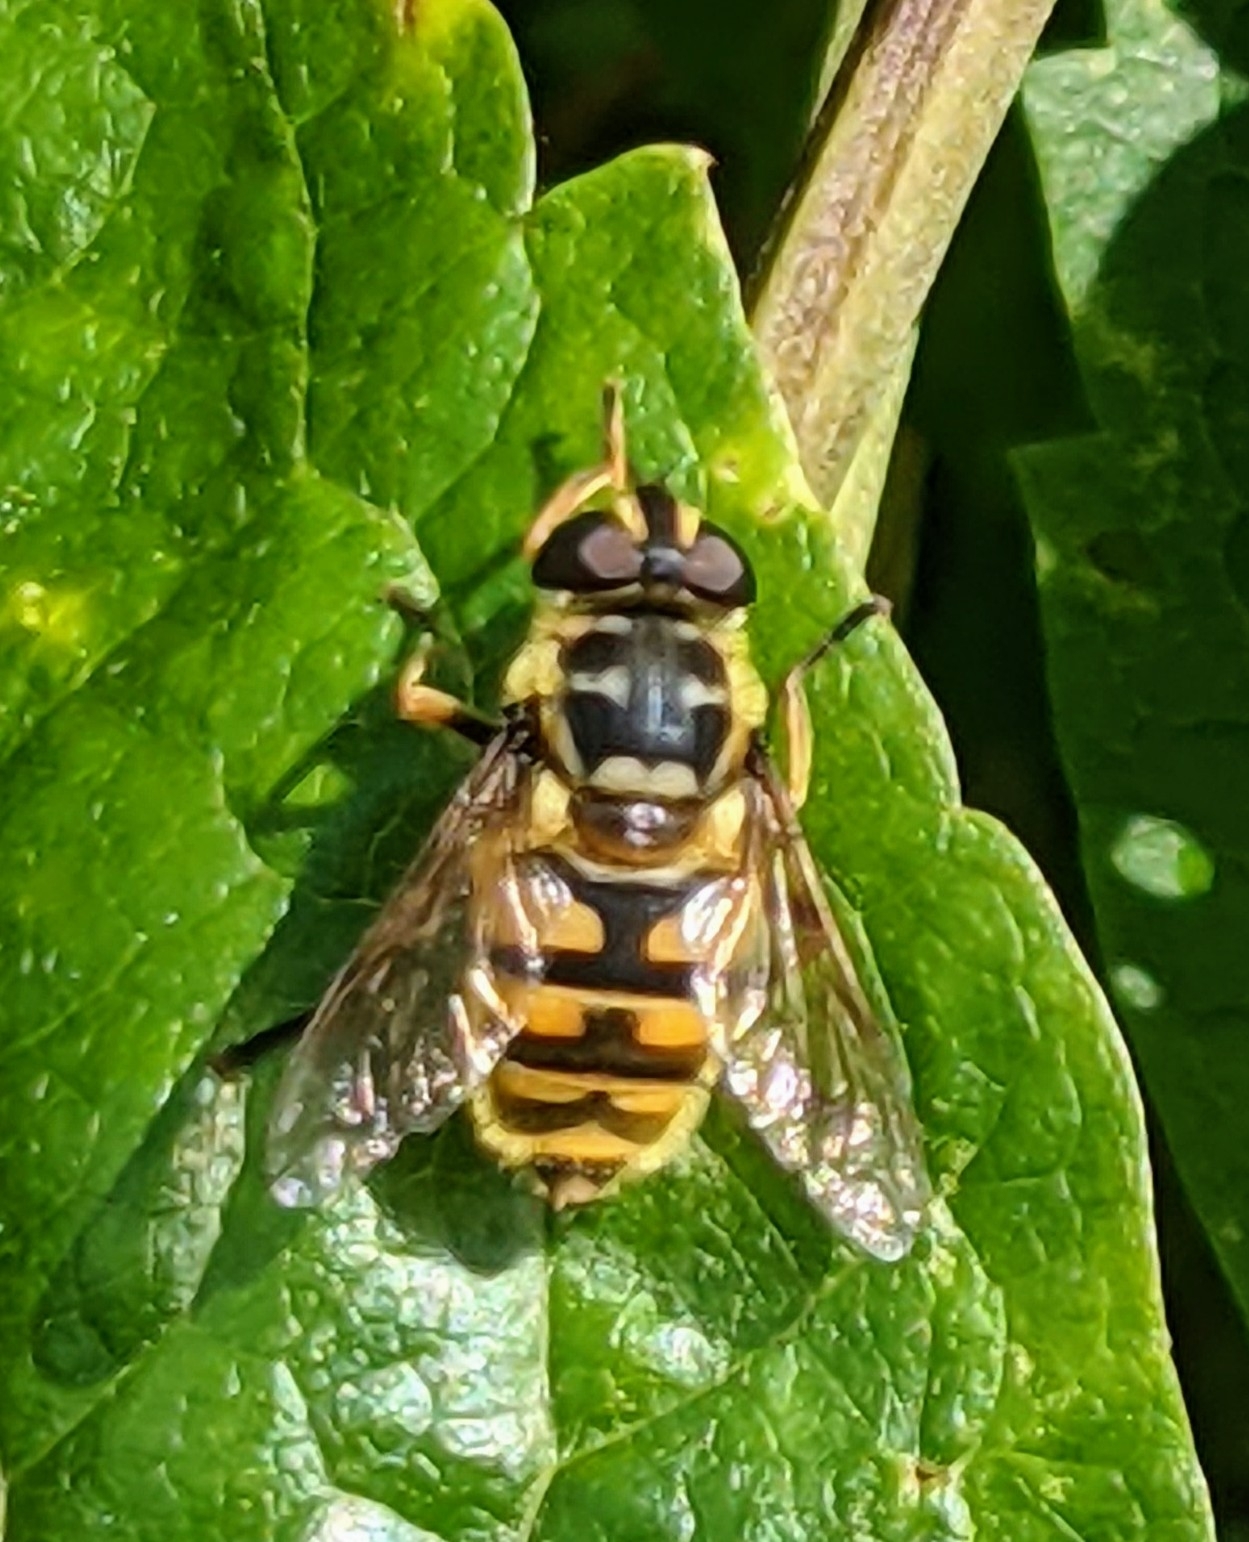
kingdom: Animalia
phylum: Arthropoda
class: Insecta
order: Diptera
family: Syrphidae
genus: Myathropa
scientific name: Myathropa florea
